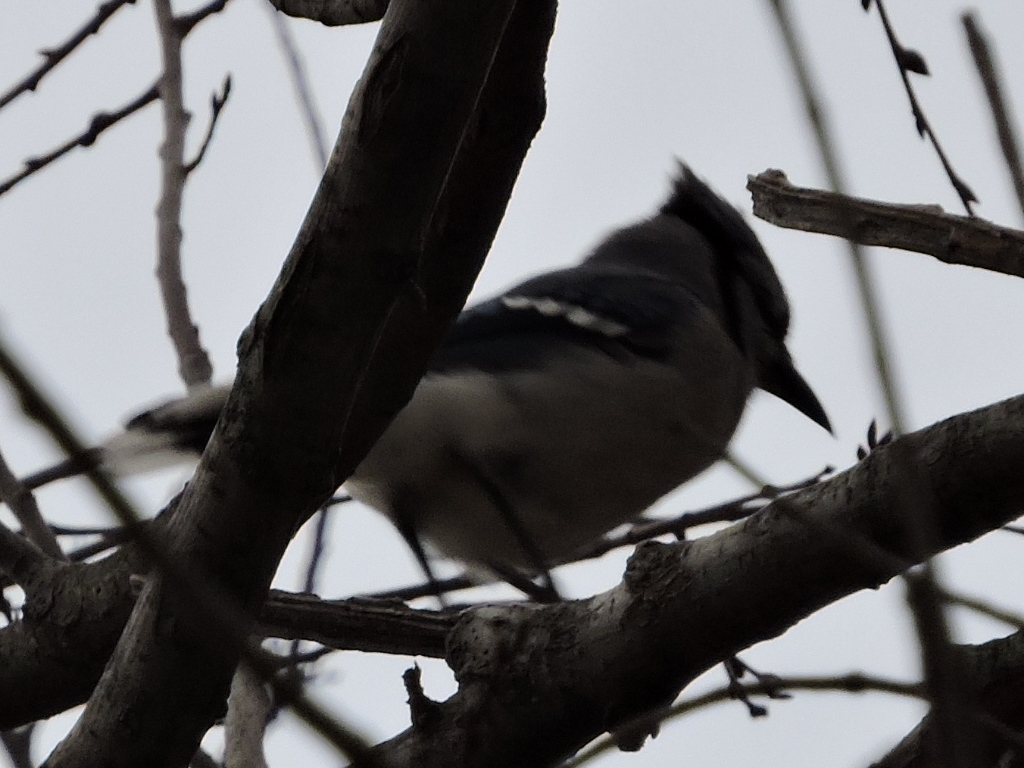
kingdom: Animalia
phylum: Chordata
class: Aves
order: Passeriformes
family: Corvidae
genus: Cyanocitta
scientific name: Cyanocitta cristata
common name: Blue jay
